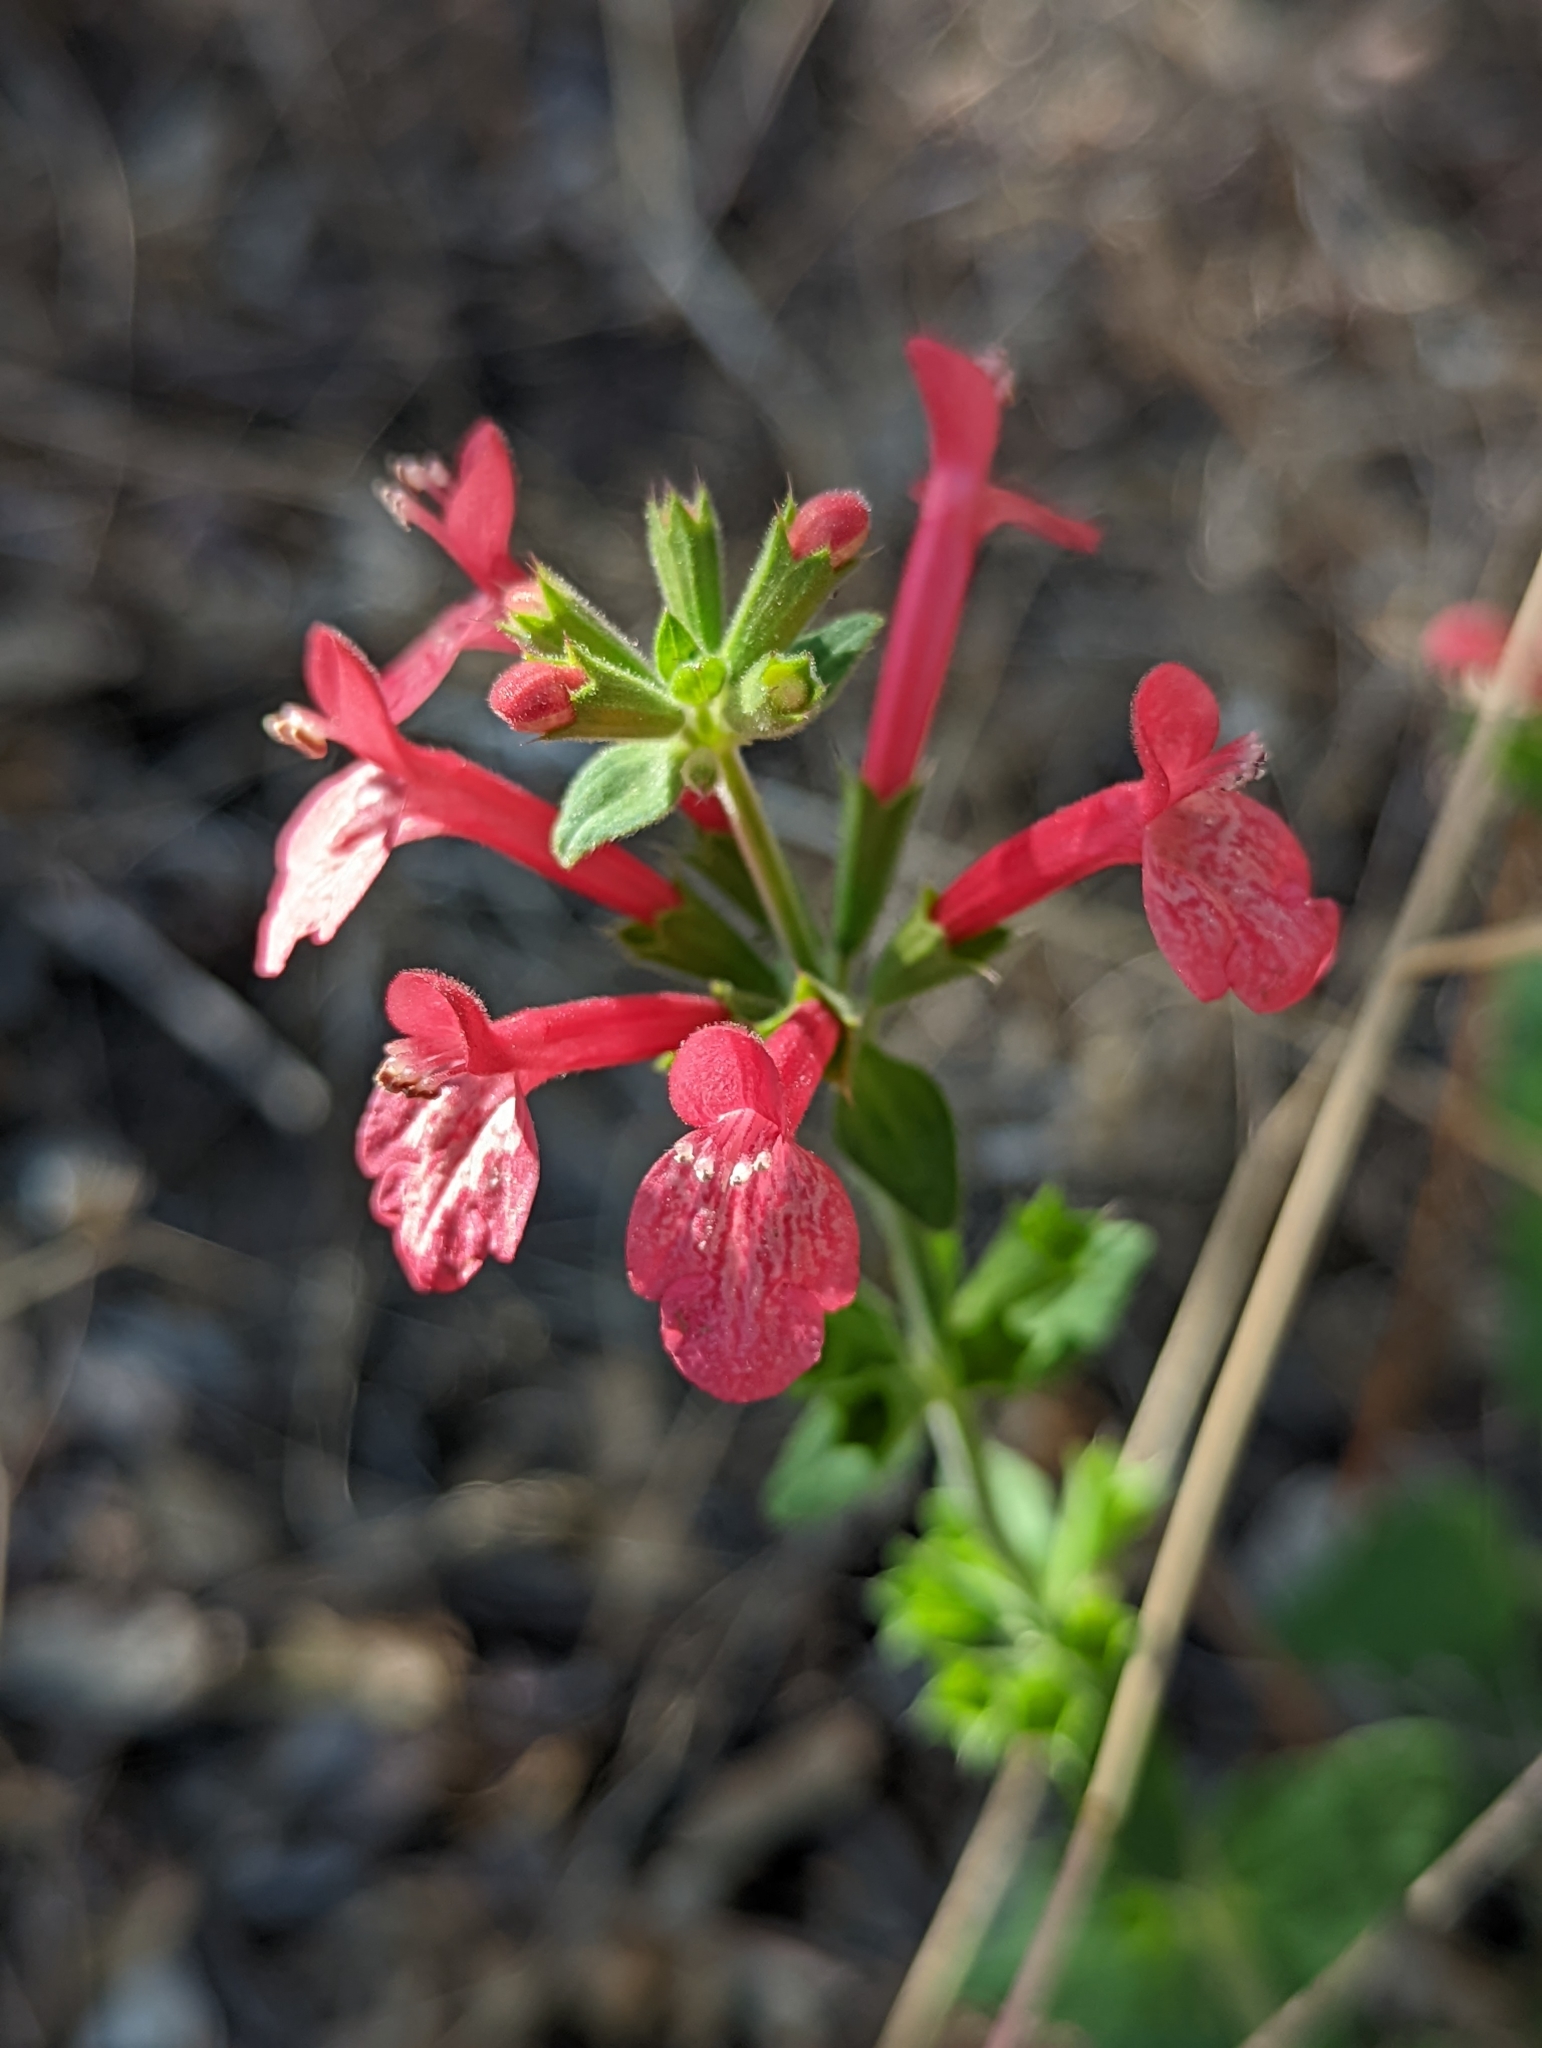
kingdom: Plantae
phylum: Tracheophyta
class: Magnoliopsida
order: Lamiales
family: Lamiaceae
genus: Stachys
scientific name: Stachys coccinea
